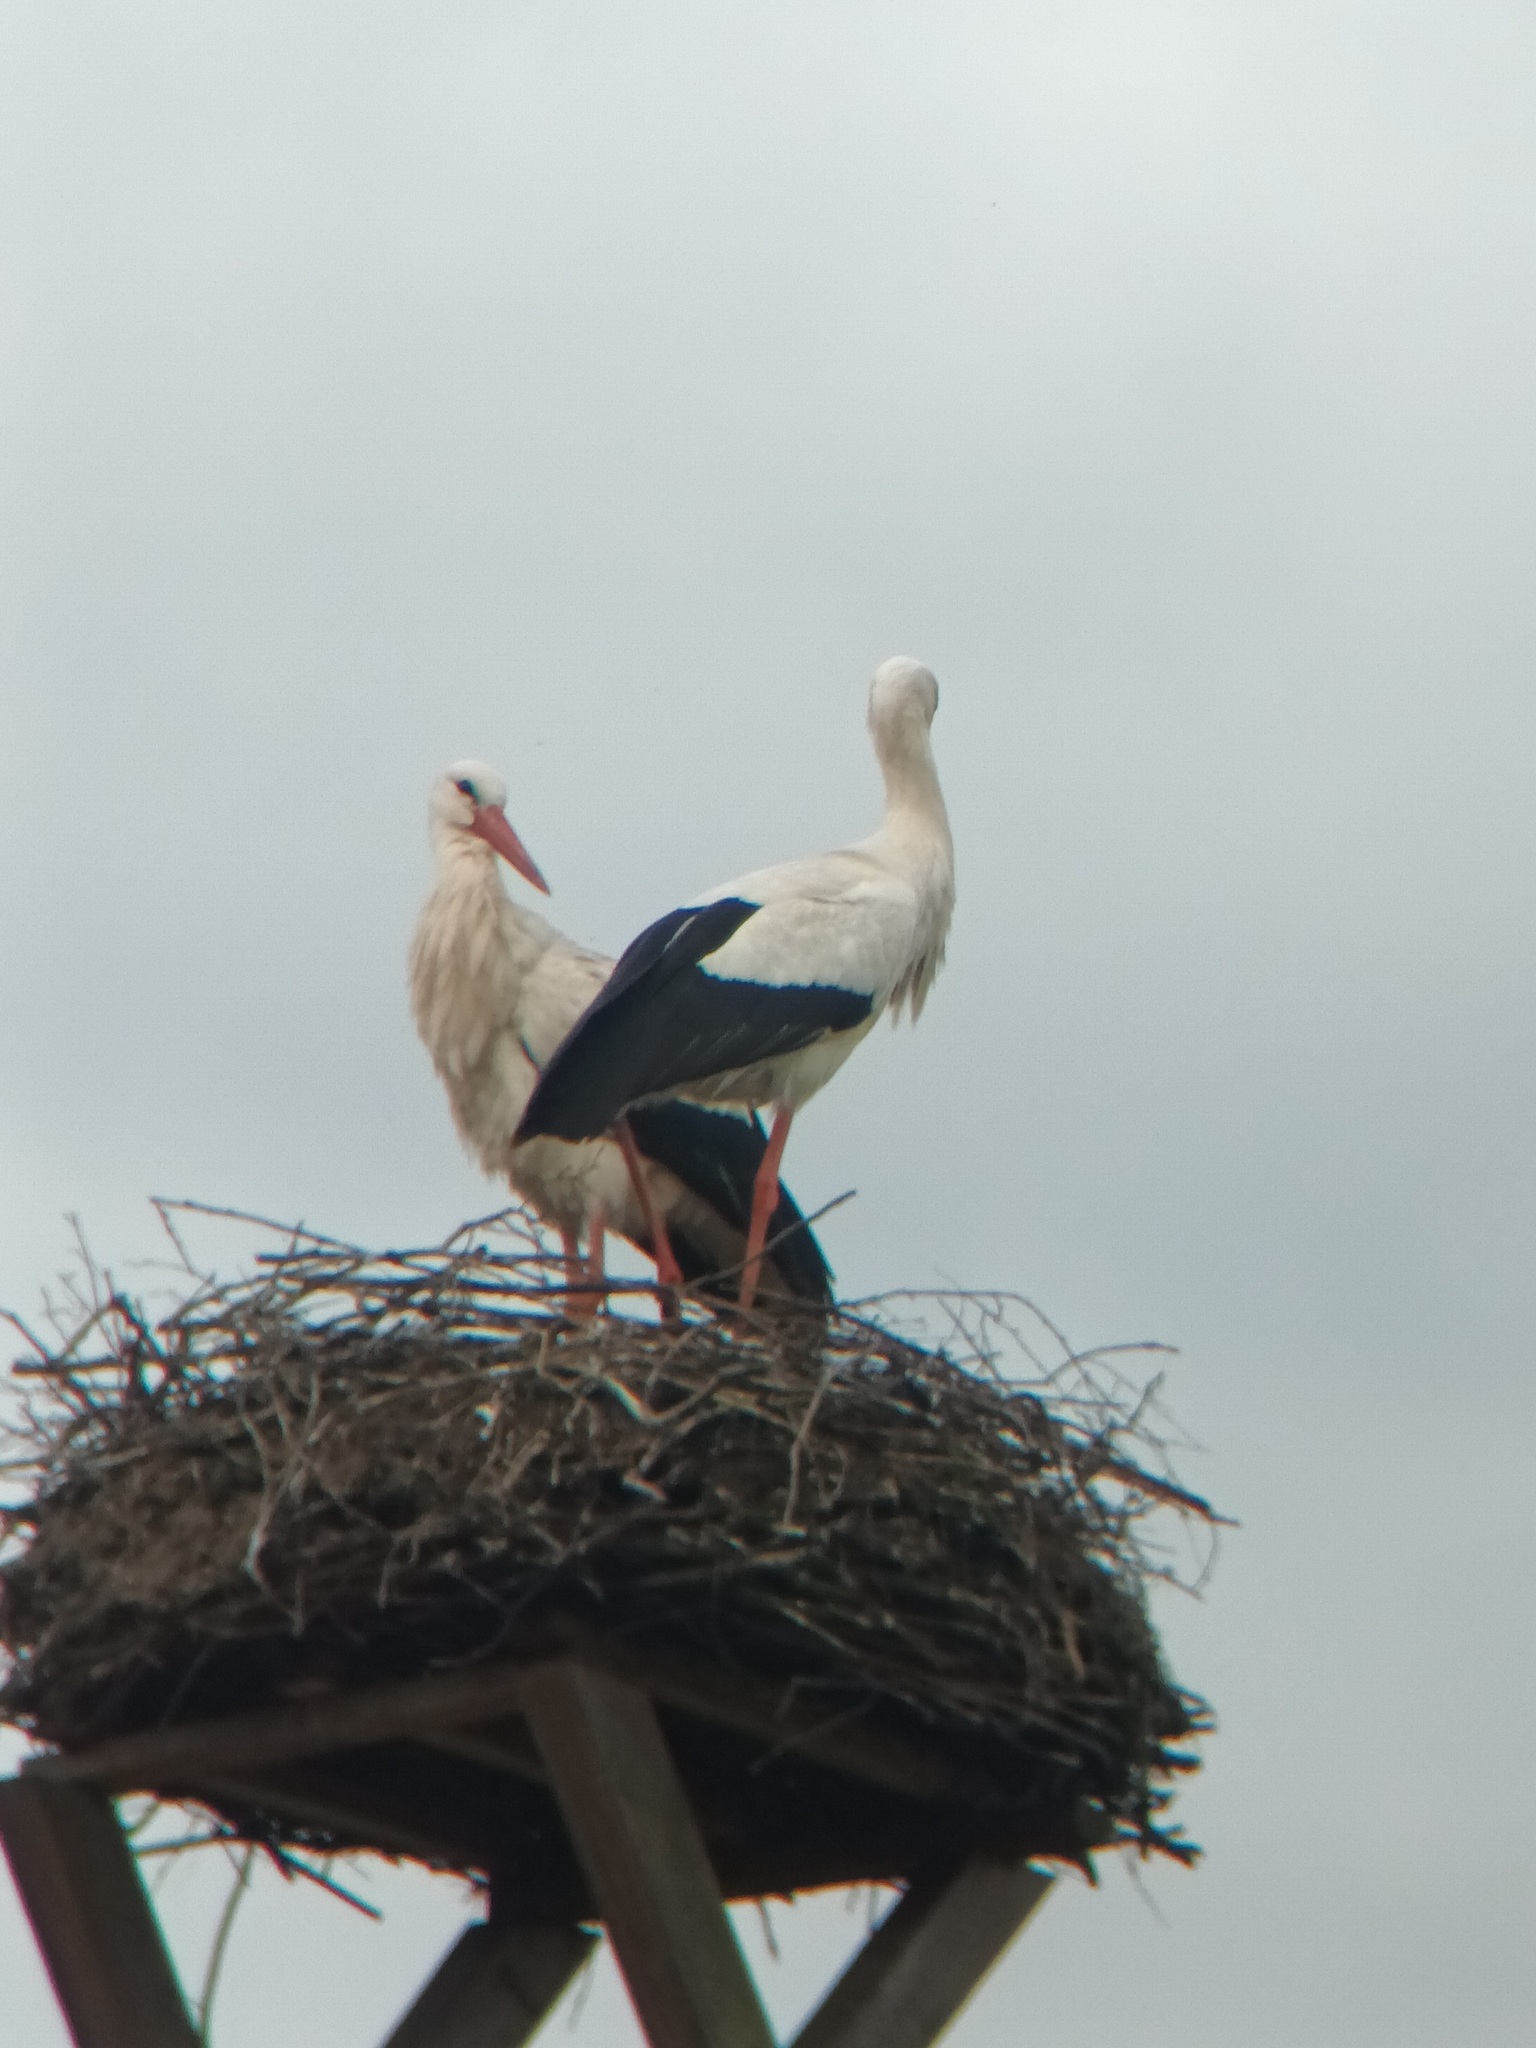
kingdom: Animalia
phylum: Chordata
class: Aves
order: Ciconiiformes
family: Ciconiidae
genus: Ciconia
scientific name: Ciconia ciconia
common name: White stork
